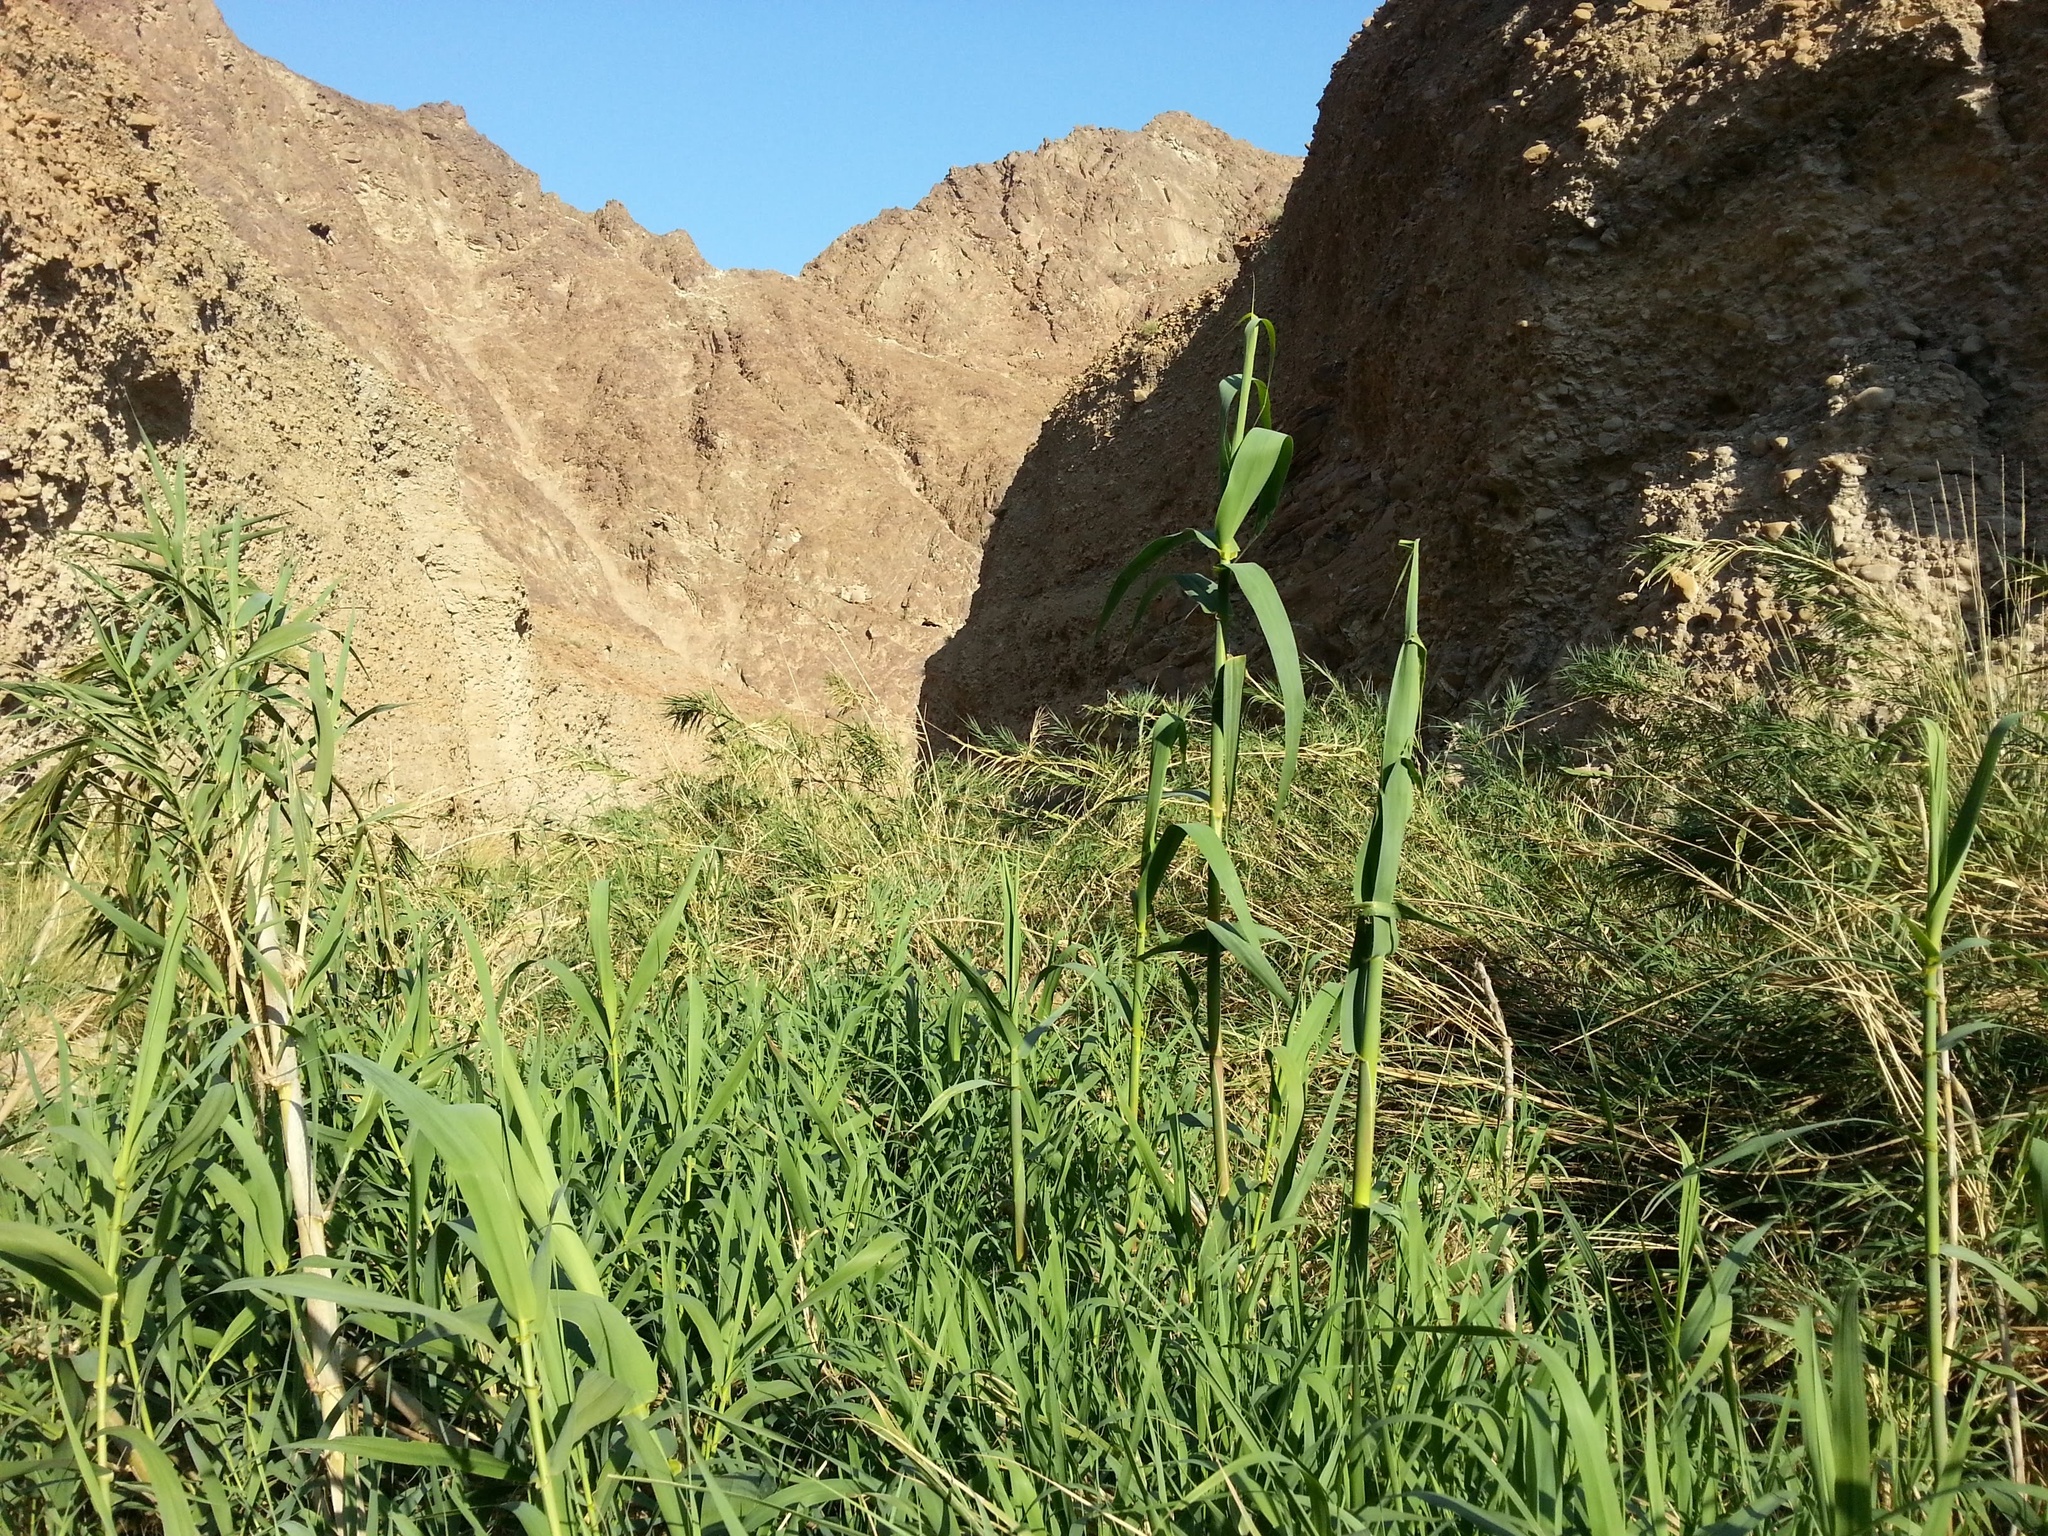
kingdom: Plantae
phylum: Tracheophyta
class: Liliopsida
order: Poales
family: Poaceae
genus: Arundo
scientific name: Arundo donax
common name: Giant reed
